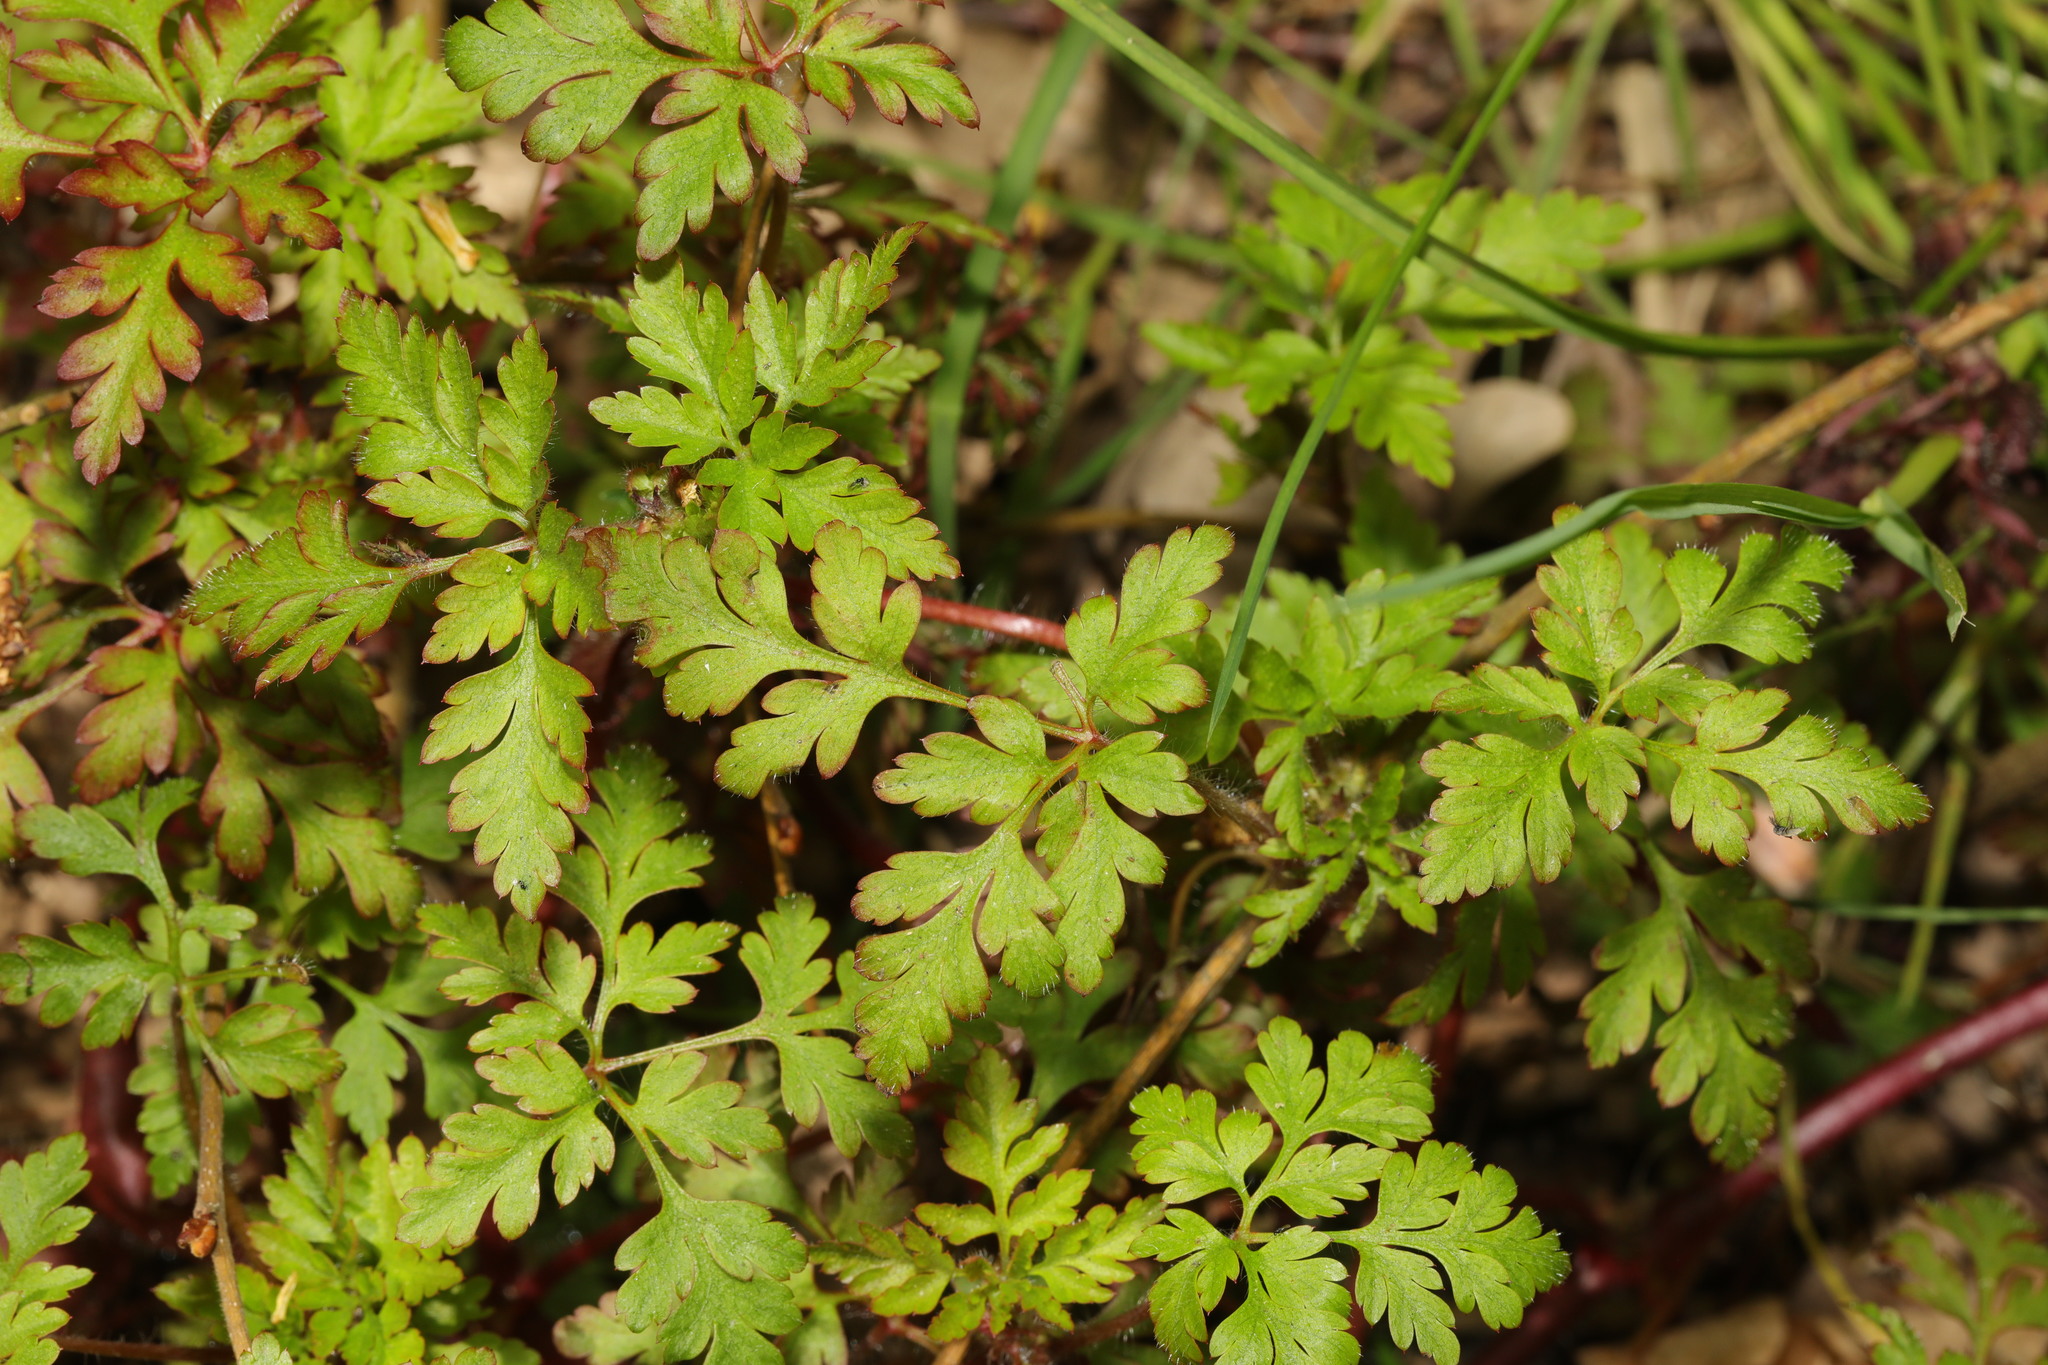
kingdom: Plantae
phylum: Tracheophyta
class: Magnoliopsida
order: Geraniales
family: Geraniaceae
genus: Geranium
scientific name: Geranium robertianum
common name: Herb-robert
